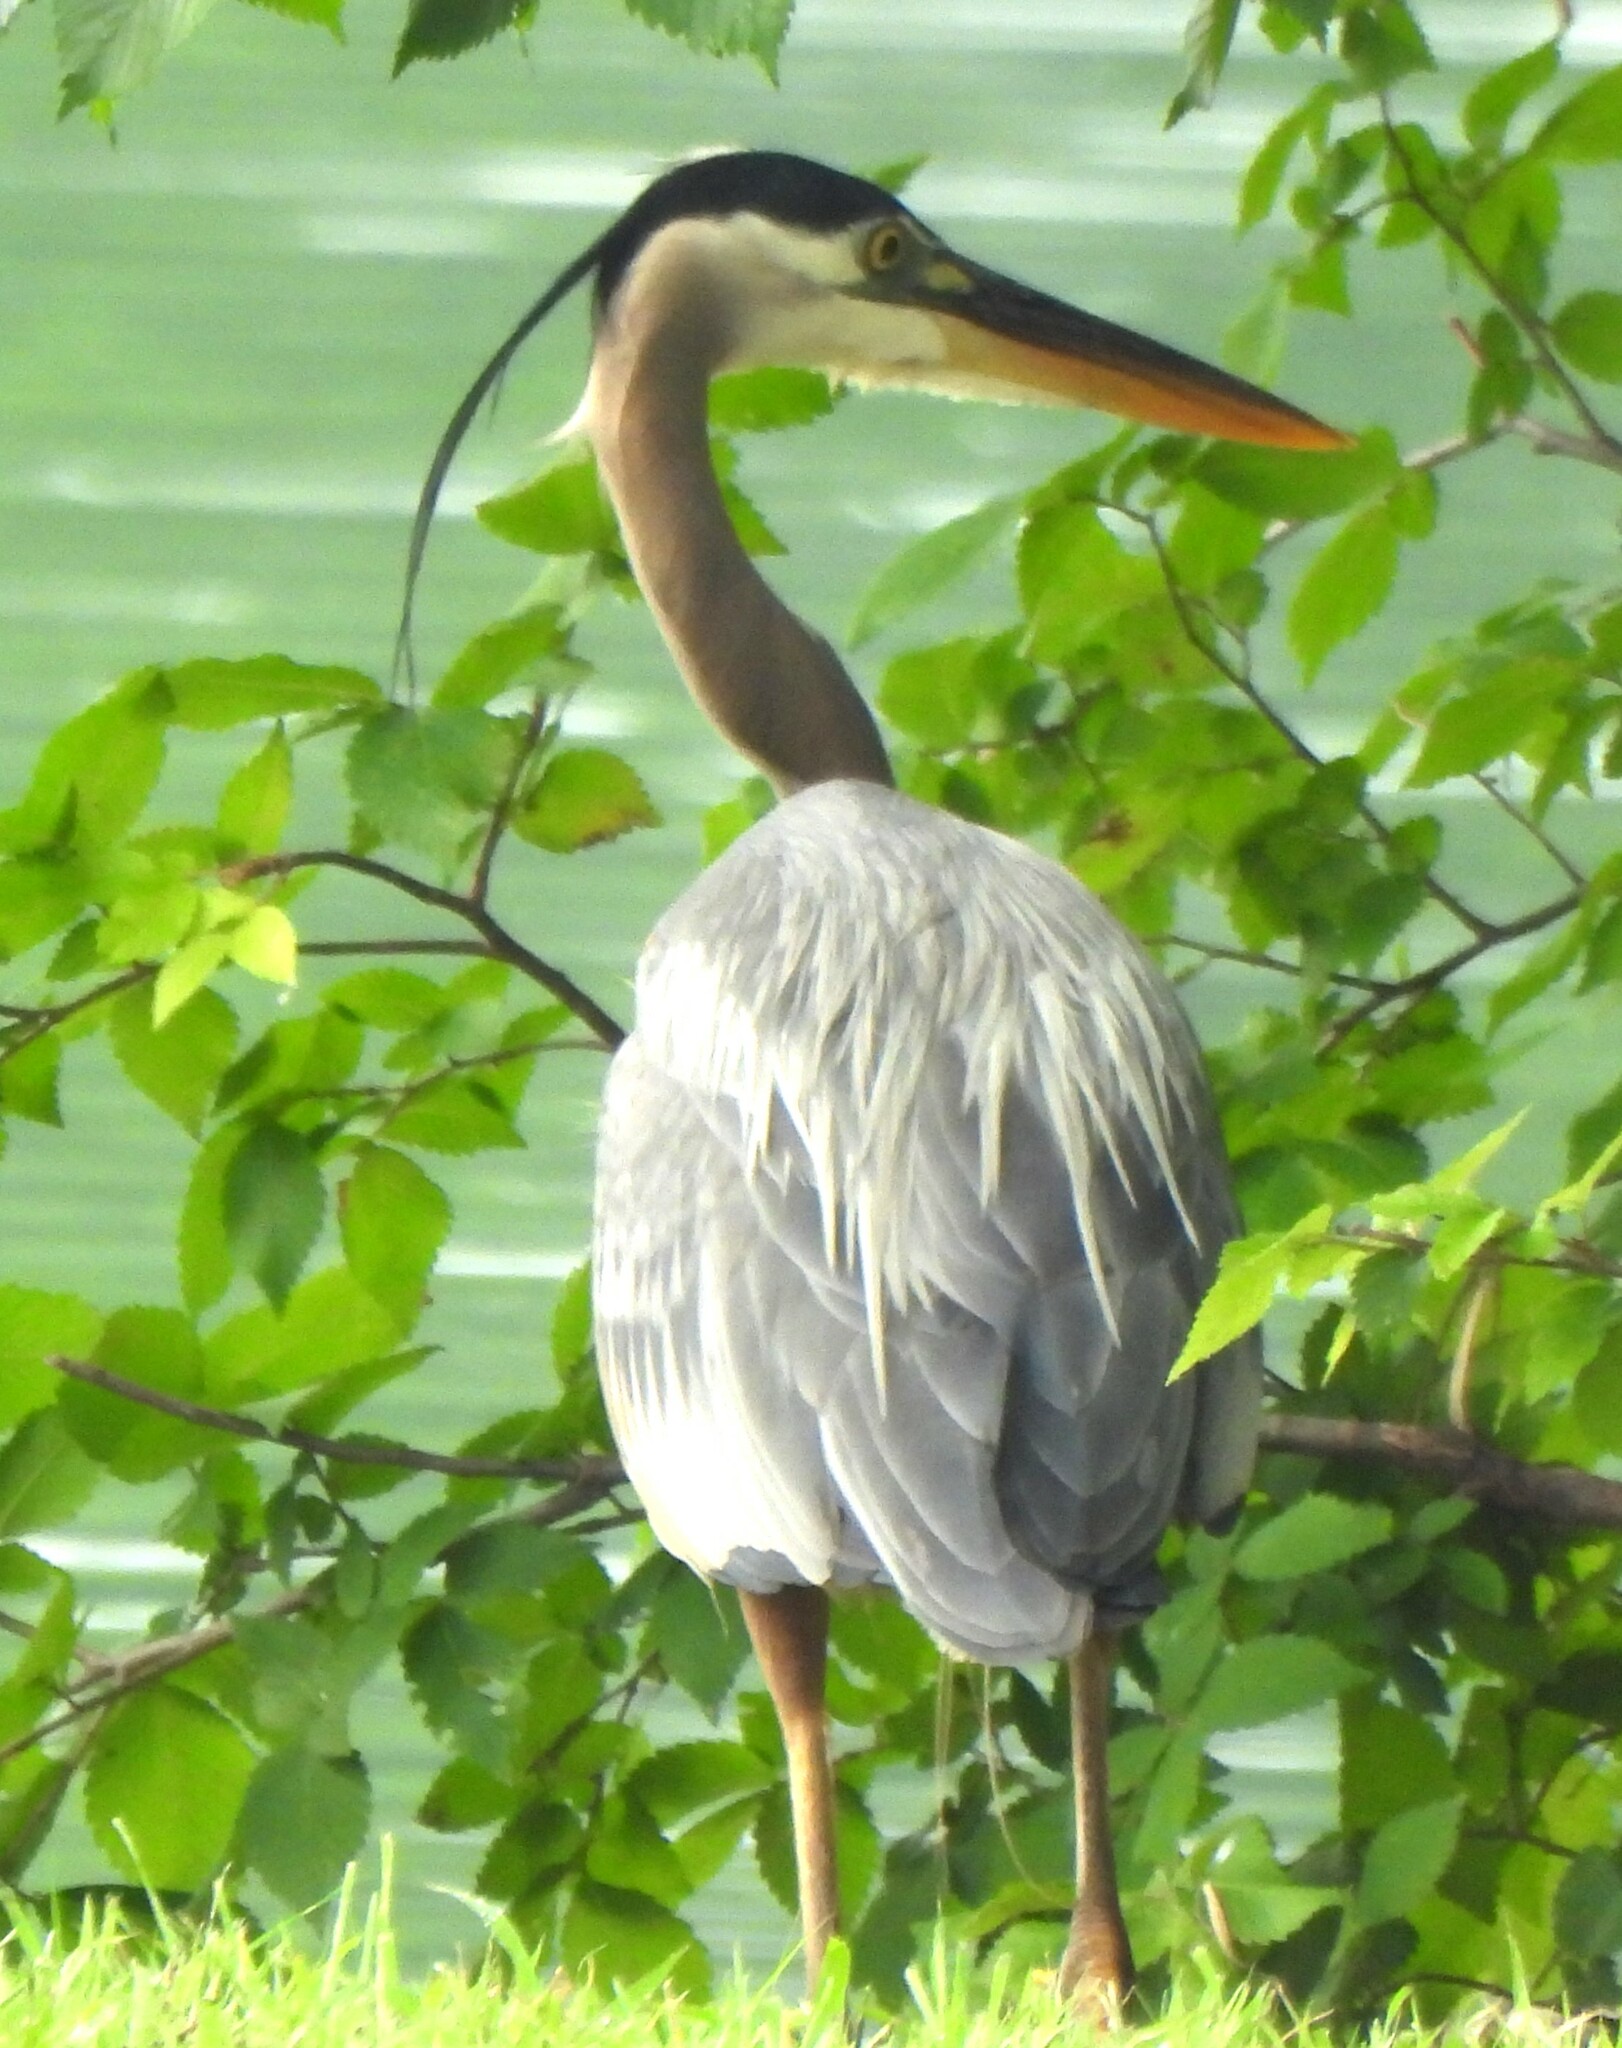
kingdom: Animalia
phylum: Chordata
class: Aves
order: Pelecaniformes
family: Ardeidae
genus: Ardea
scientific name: Ardea herodias
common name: Great blue heron
